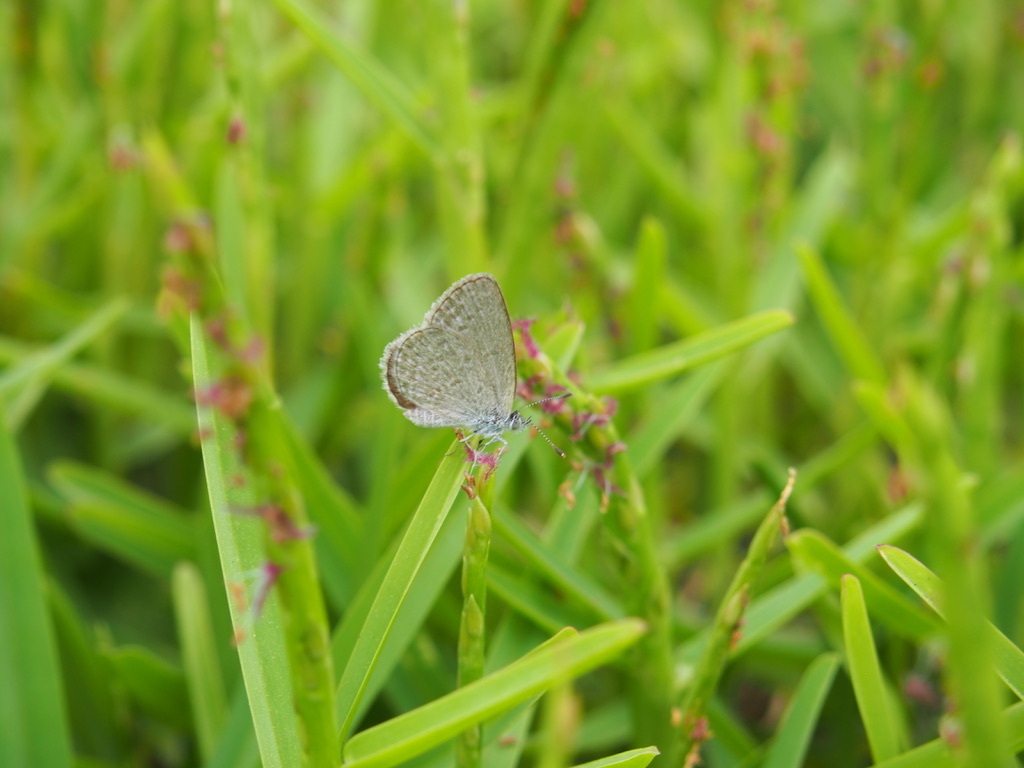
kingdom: Animalia
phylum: Arthropoda
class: Insecta
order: Lepidoptera
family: Lycaenidae
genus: Zizina
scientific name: Zizina otis
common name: Lesser grass blue
